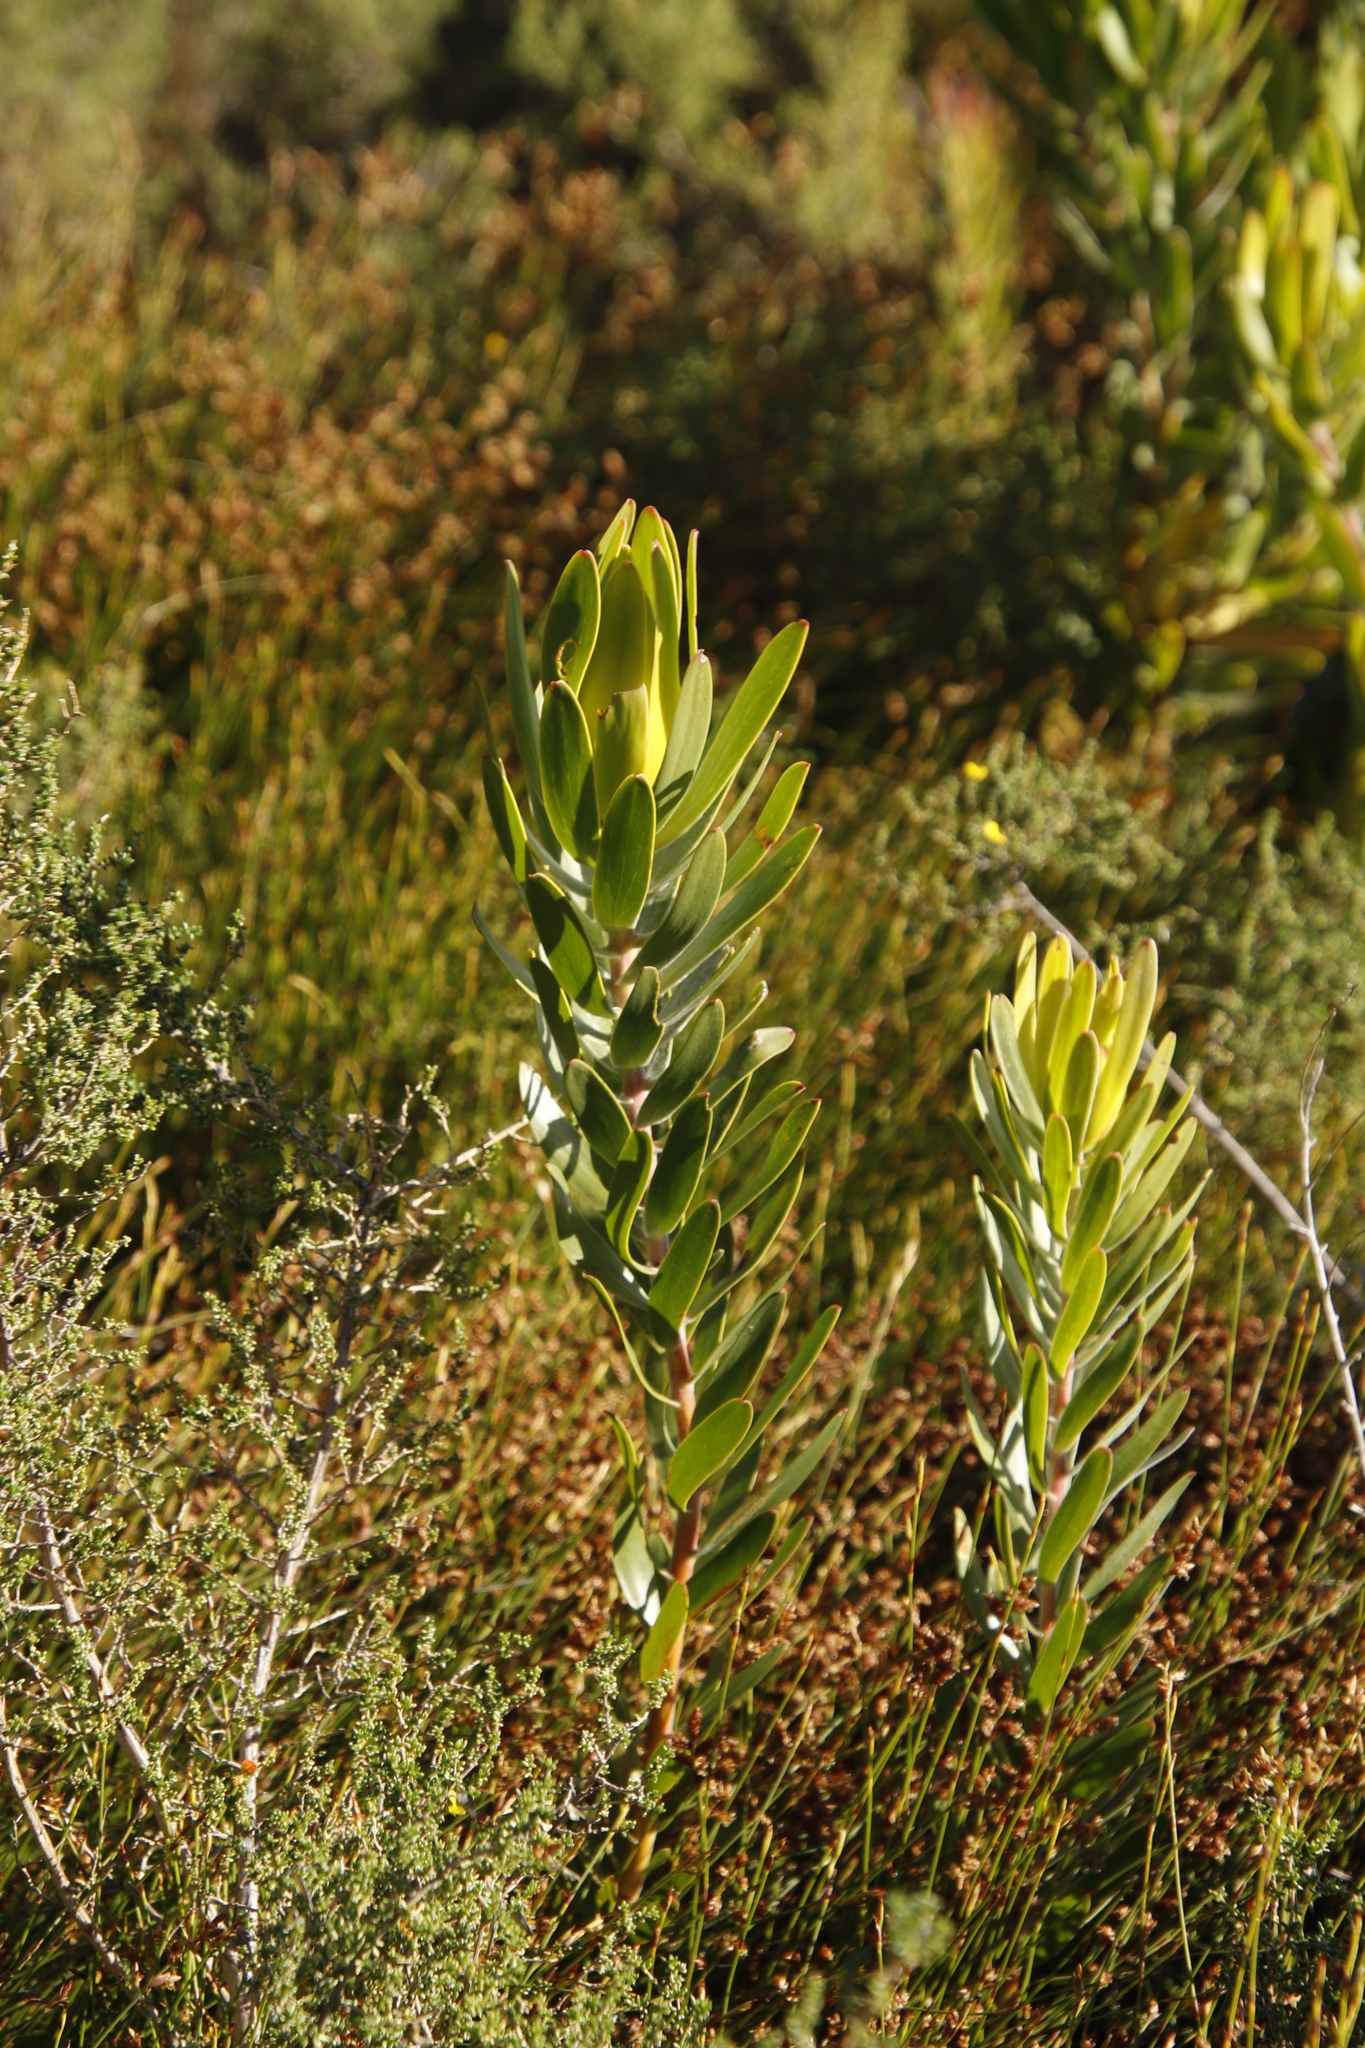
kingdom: Plantae
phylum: Tracheophyta
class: Magnoliopsida
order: Proteales
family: Proteaceae
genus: Leucadendron
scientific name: Leucadendron laureolum
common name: Golden sunshinebush
